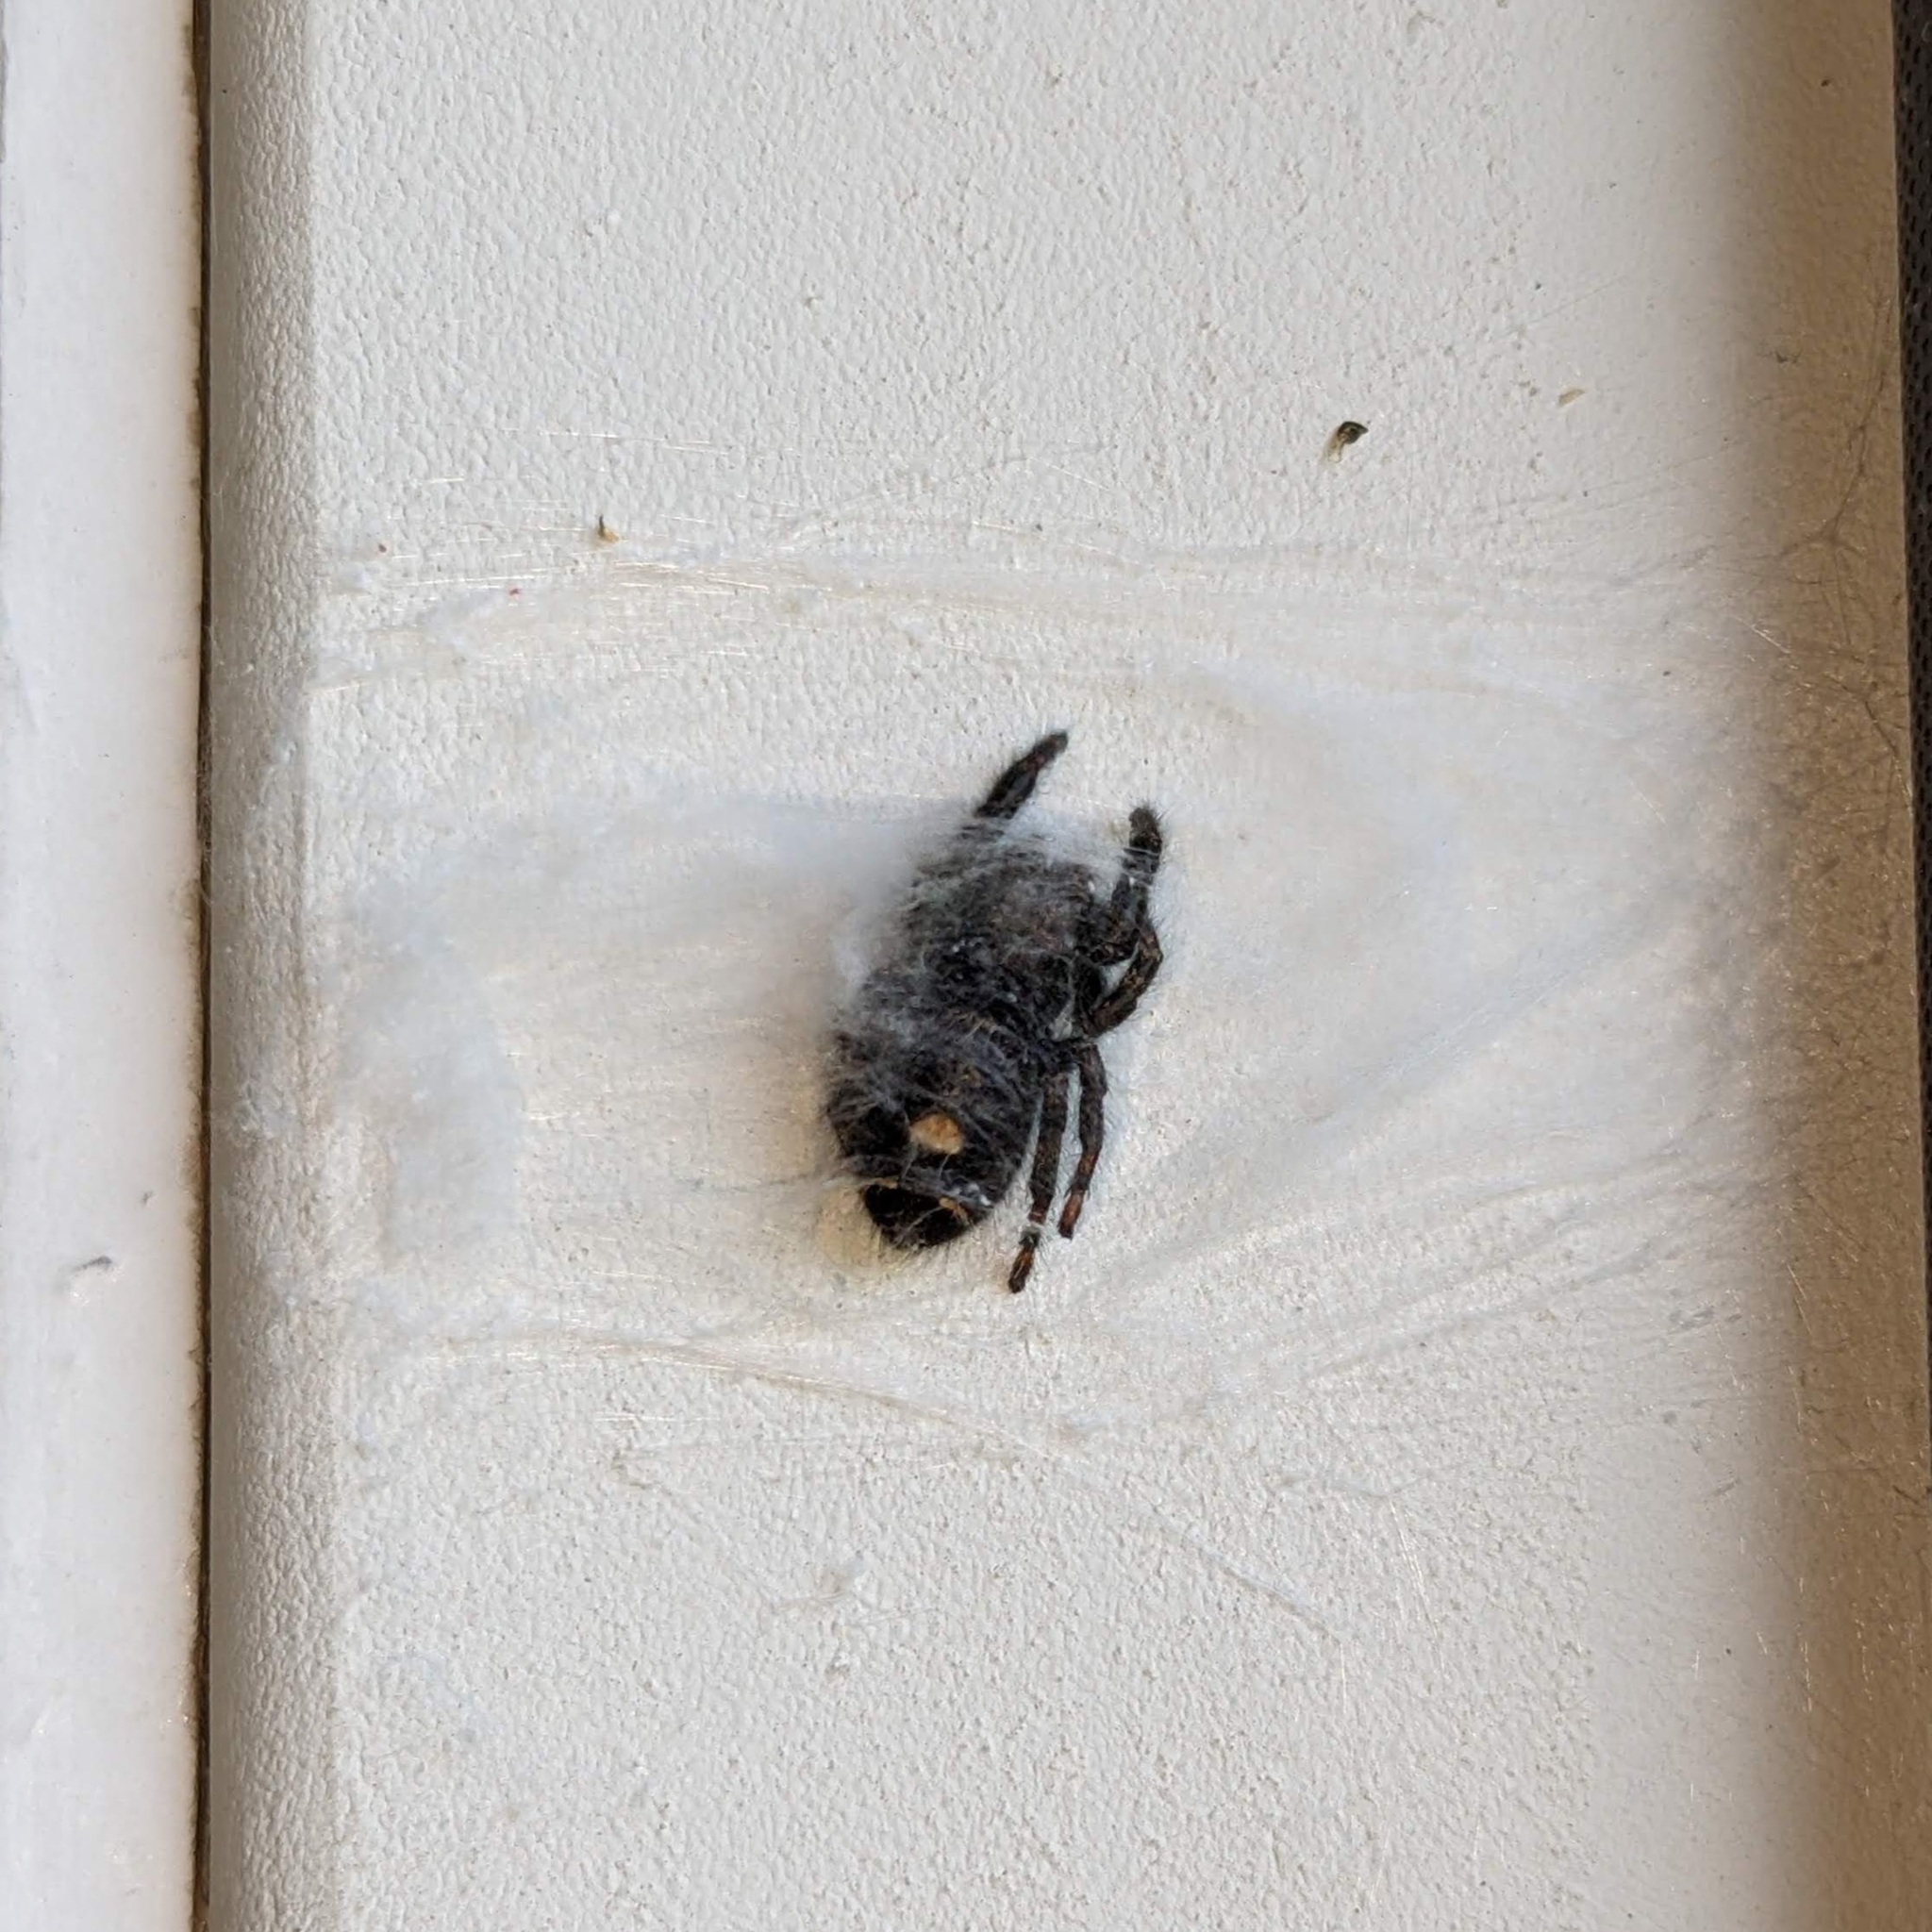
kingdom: Animalia
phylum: Arthropoda
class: Arachnida
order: Araneae
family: Salticidae
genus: Phidippus
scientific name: Phidippus audax
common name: Bold jumper
